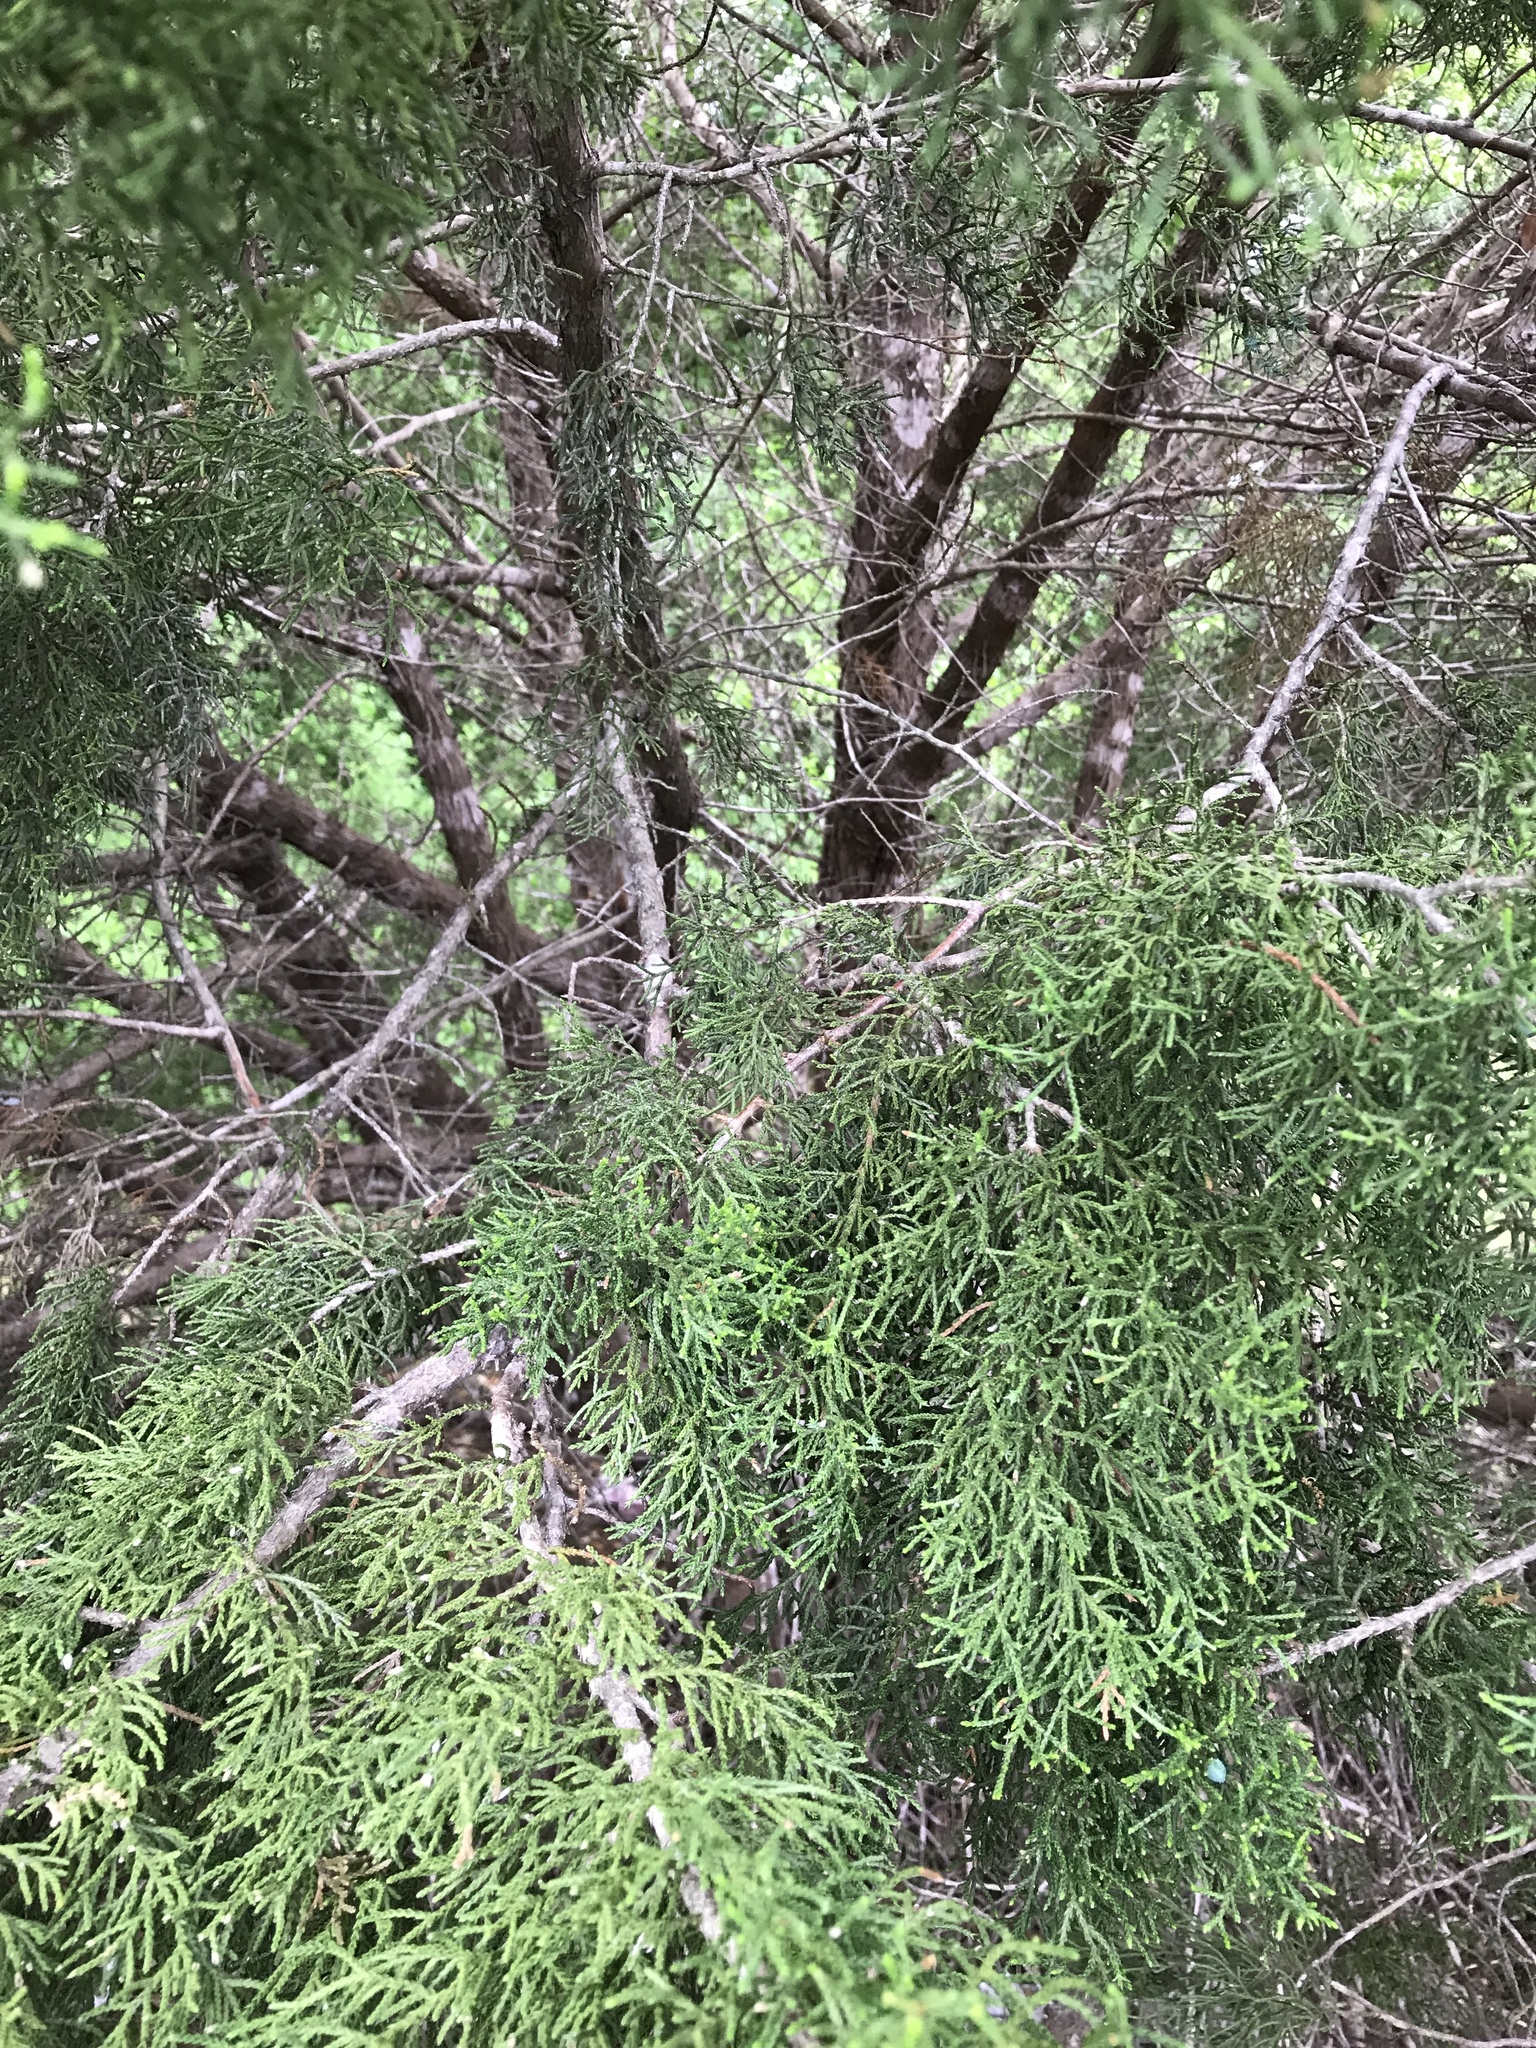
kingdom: Plantae
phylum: Tracheophyta
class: Pinopsida
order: Pinales
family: Cupressaceae
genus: Juniperus
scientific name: Juniperus ashei
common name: Mexican juniper
